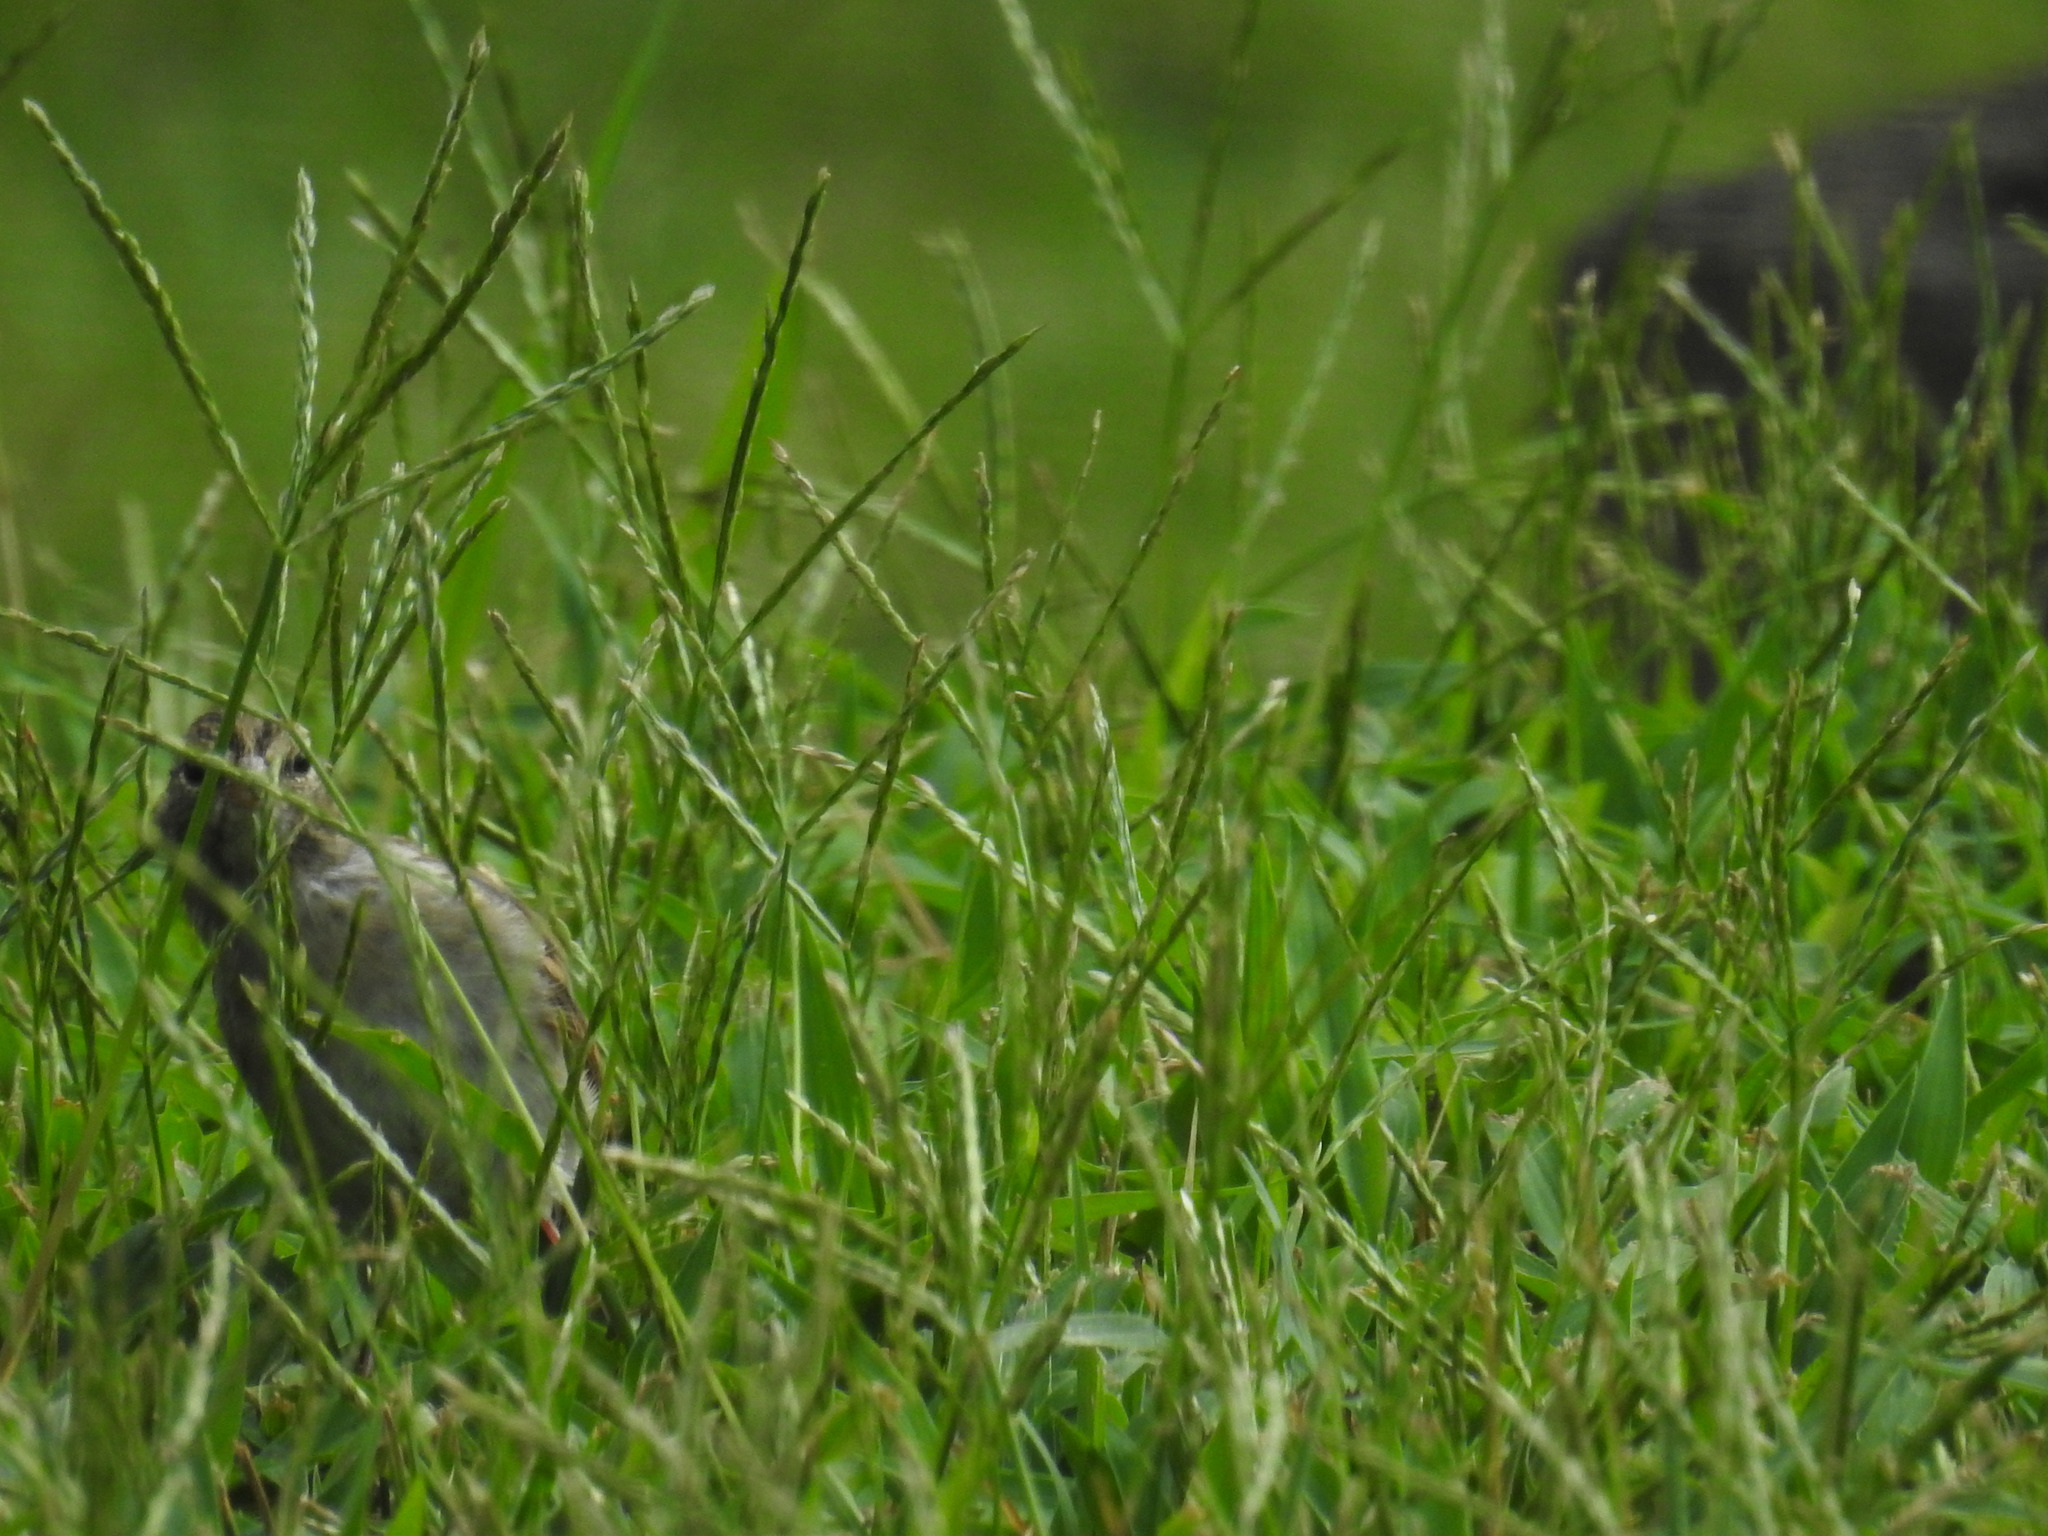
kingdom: Animalia
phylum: Chordata
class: Aves
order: Passeriformes
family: Passerellidae
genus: Spizella
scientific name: Spizella passerina
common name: Chipping sparrow
